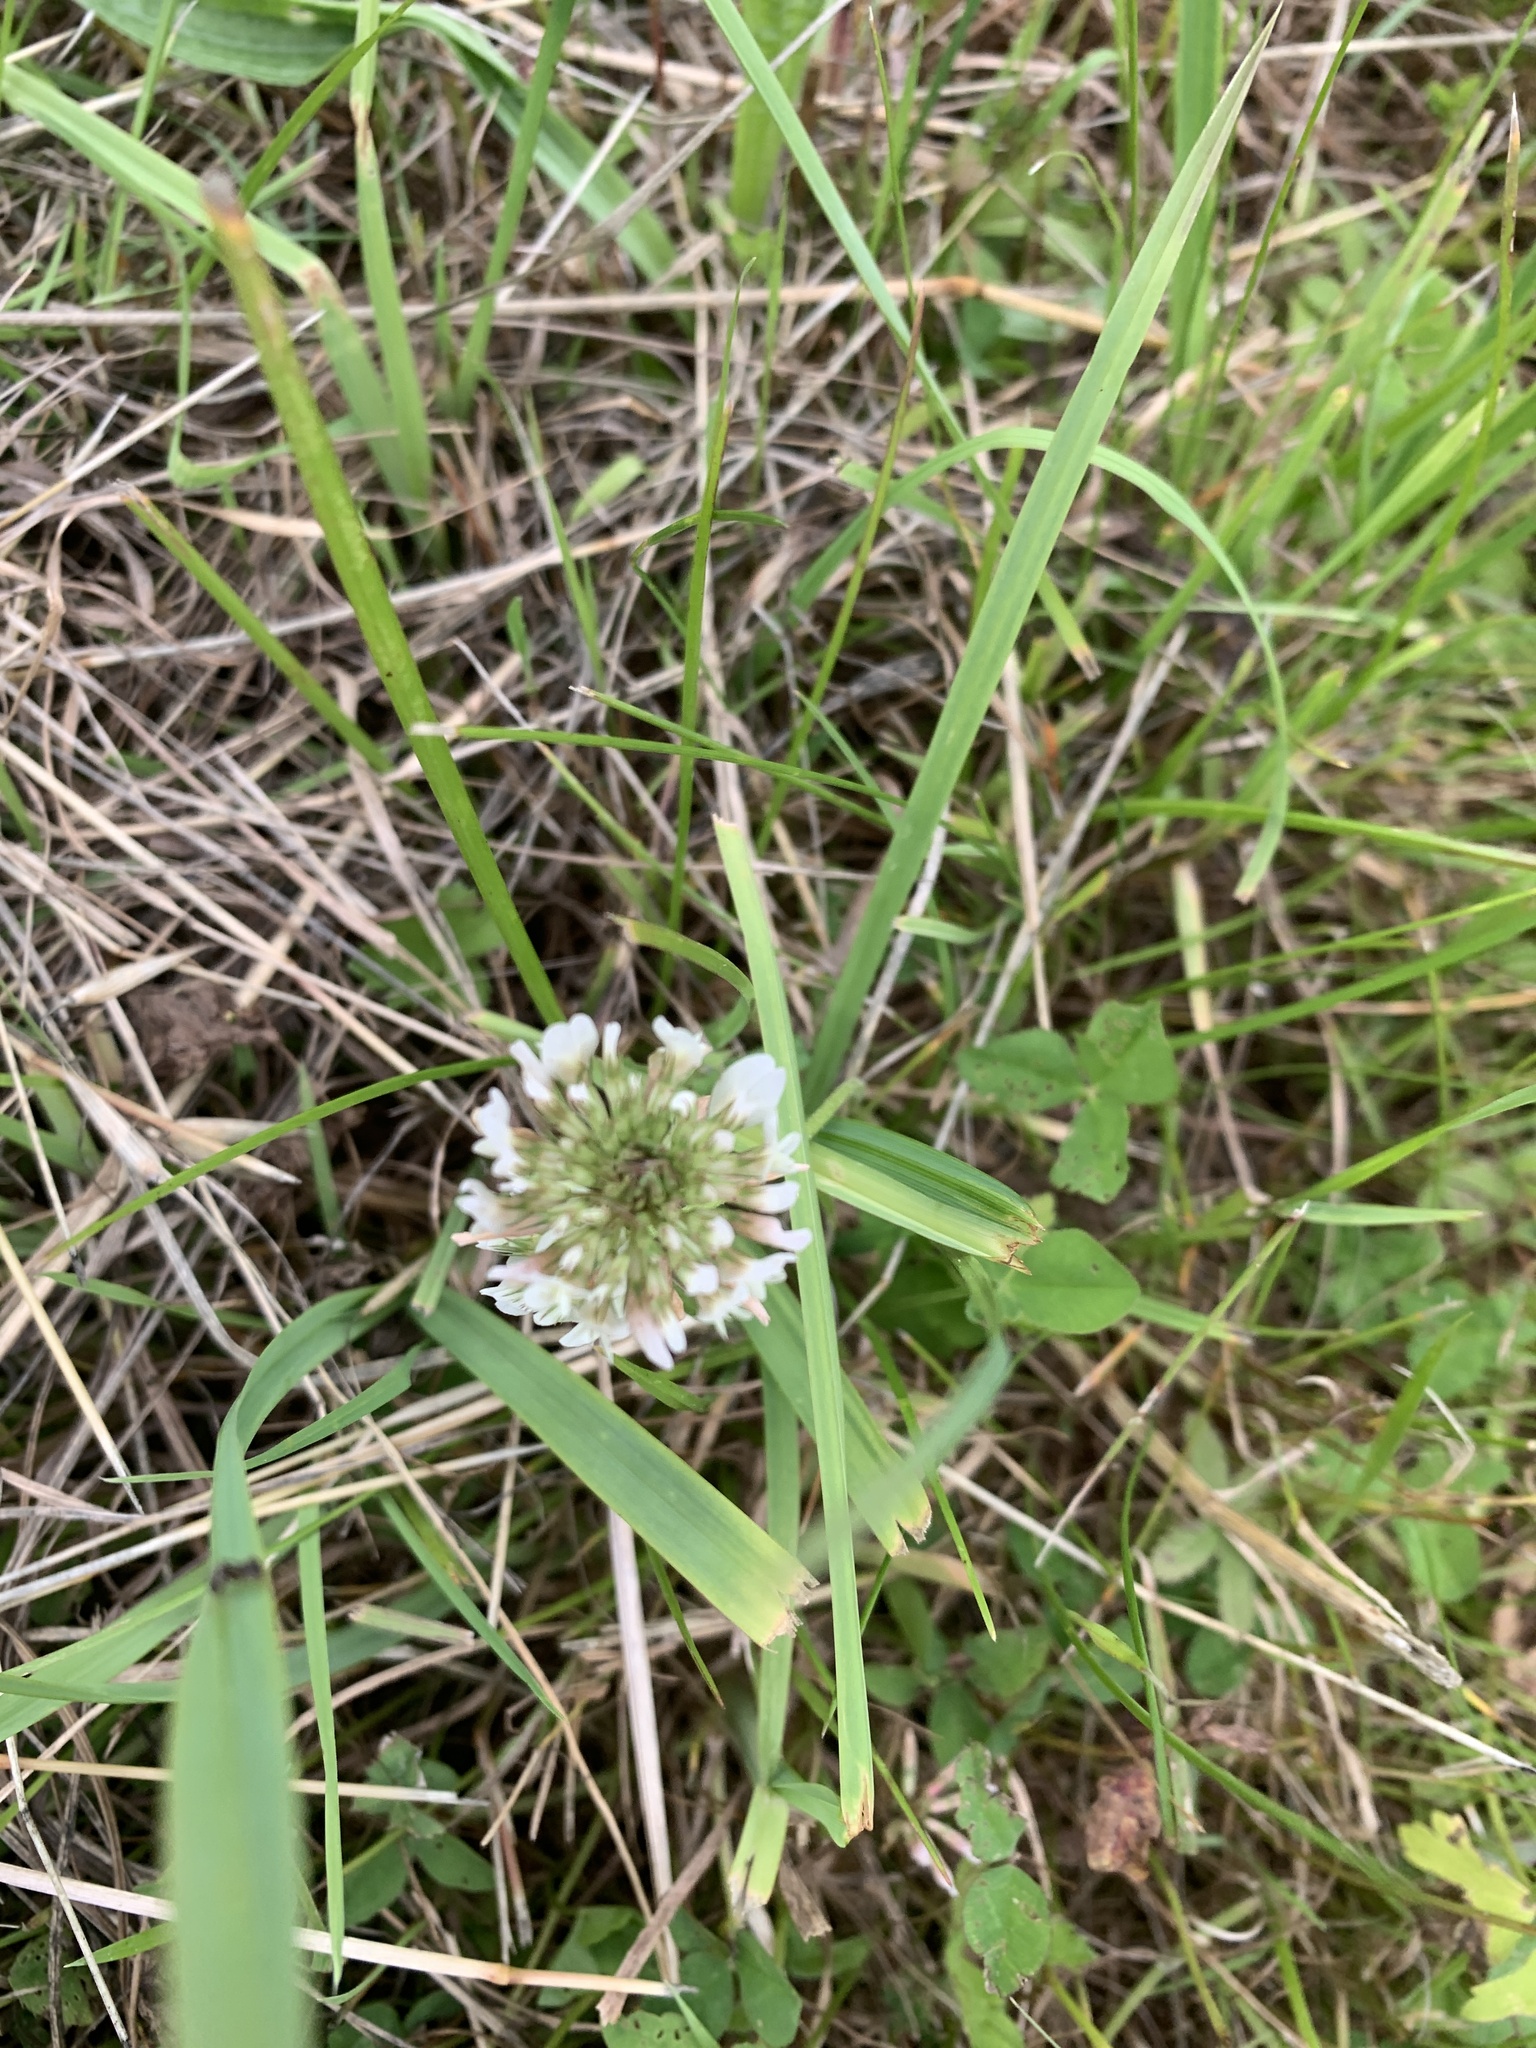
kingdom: Plantae
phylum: Tracheophyta
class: Magnoliopsida
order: Fabales
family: Fabaceae
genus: Trifolium
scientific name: Trifolium repens
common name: White clover
